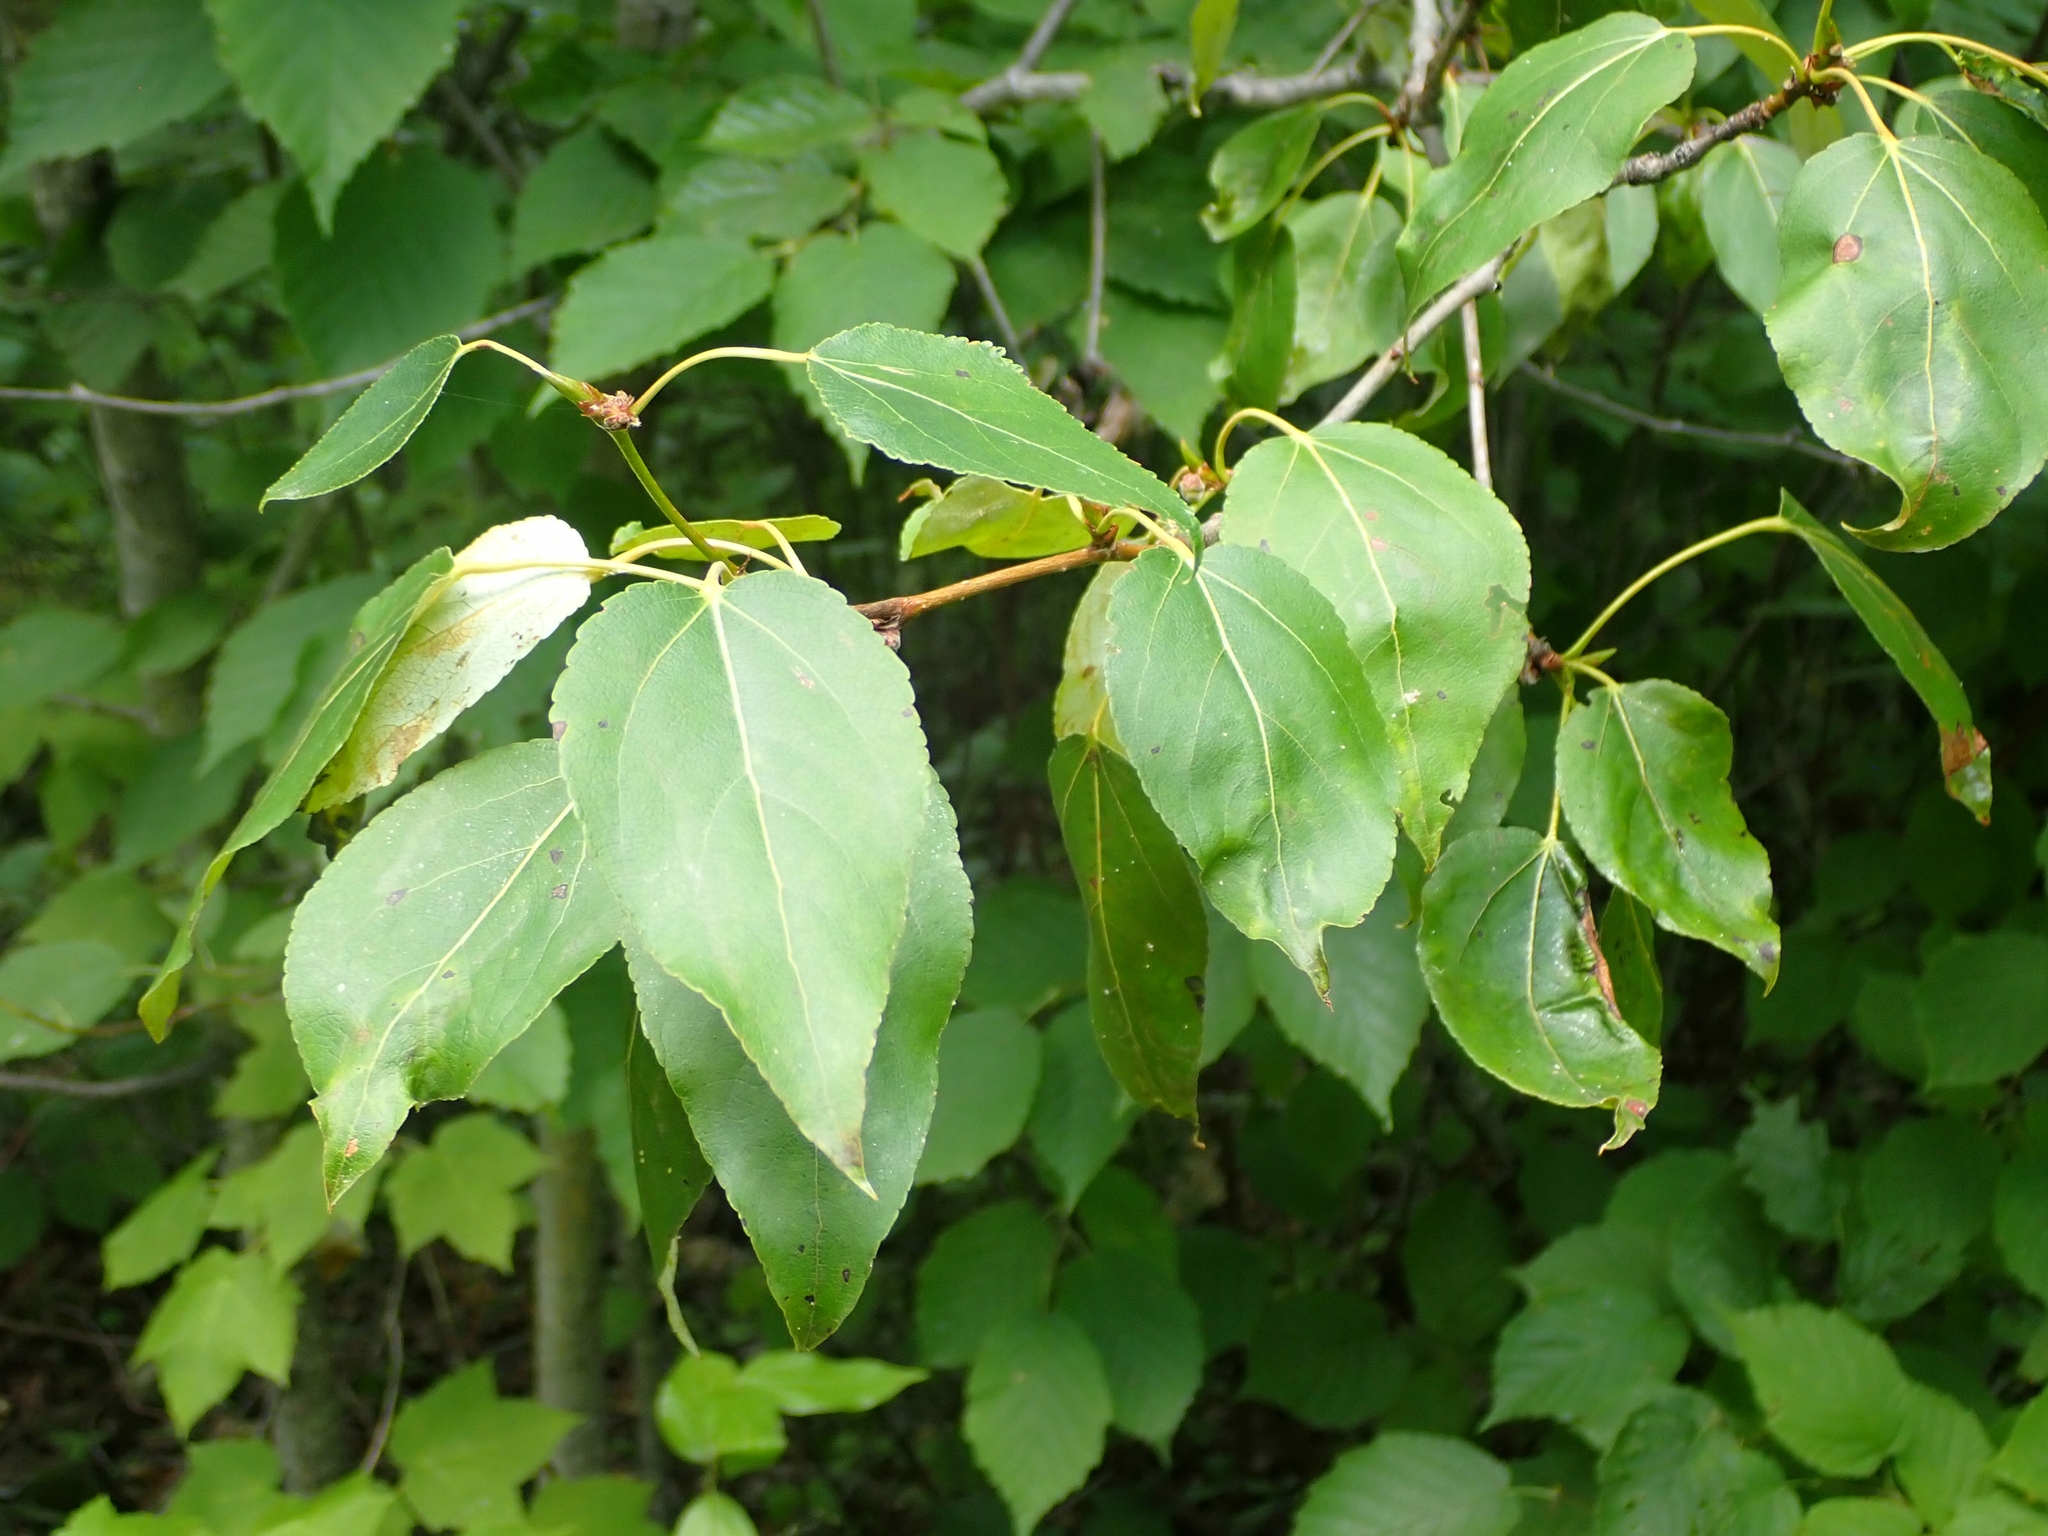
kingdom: Plantae
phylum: Tracheophyta
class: Magnoliopsida
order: Malpighiales
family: Salicaceae
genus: Populus
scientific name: Populus balsamifera
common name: Balsam poplar
